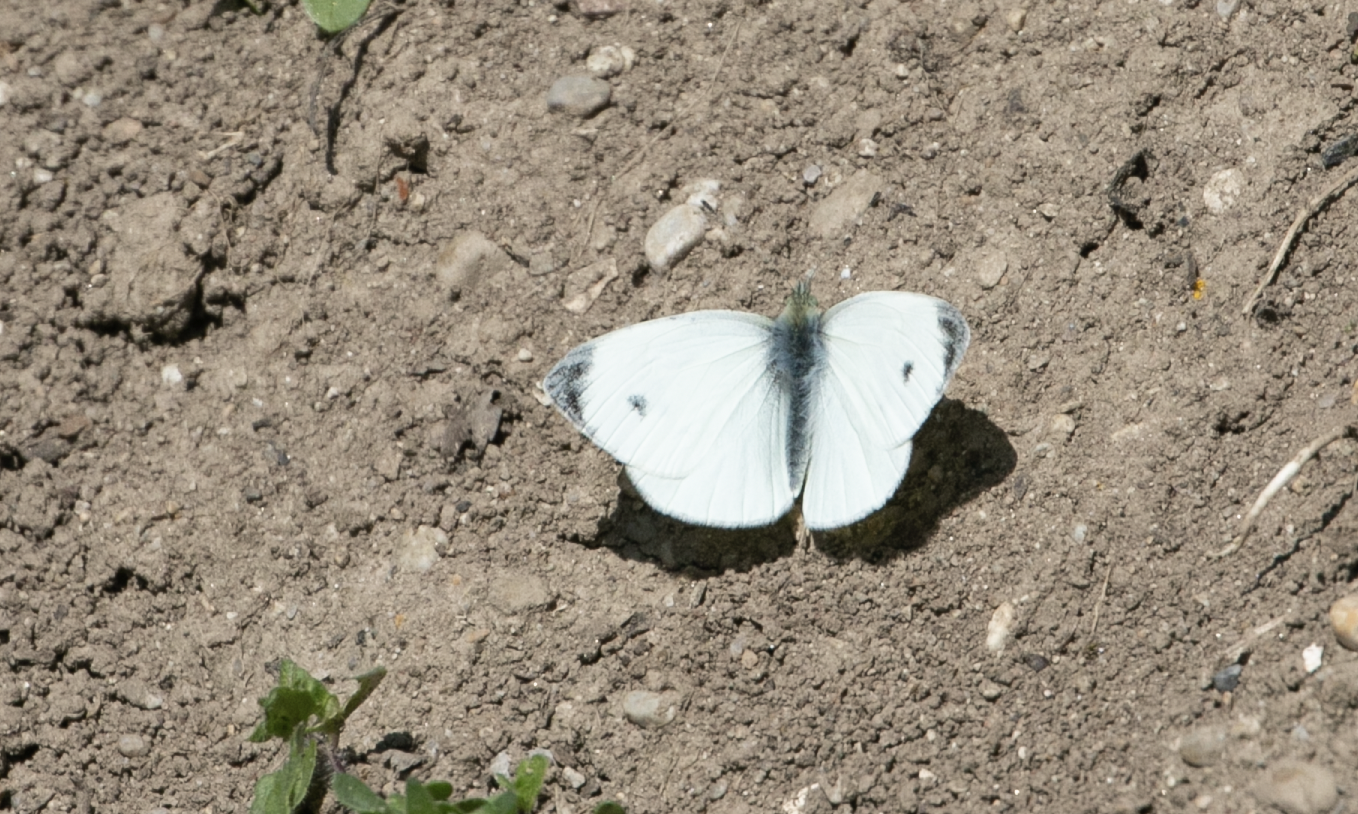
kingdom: Animalia
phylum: Arthropoda
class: Insecta
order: Lepidoptera
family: Pieridae
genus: Pieris
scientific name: Pieris mannii
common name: Southern small white
